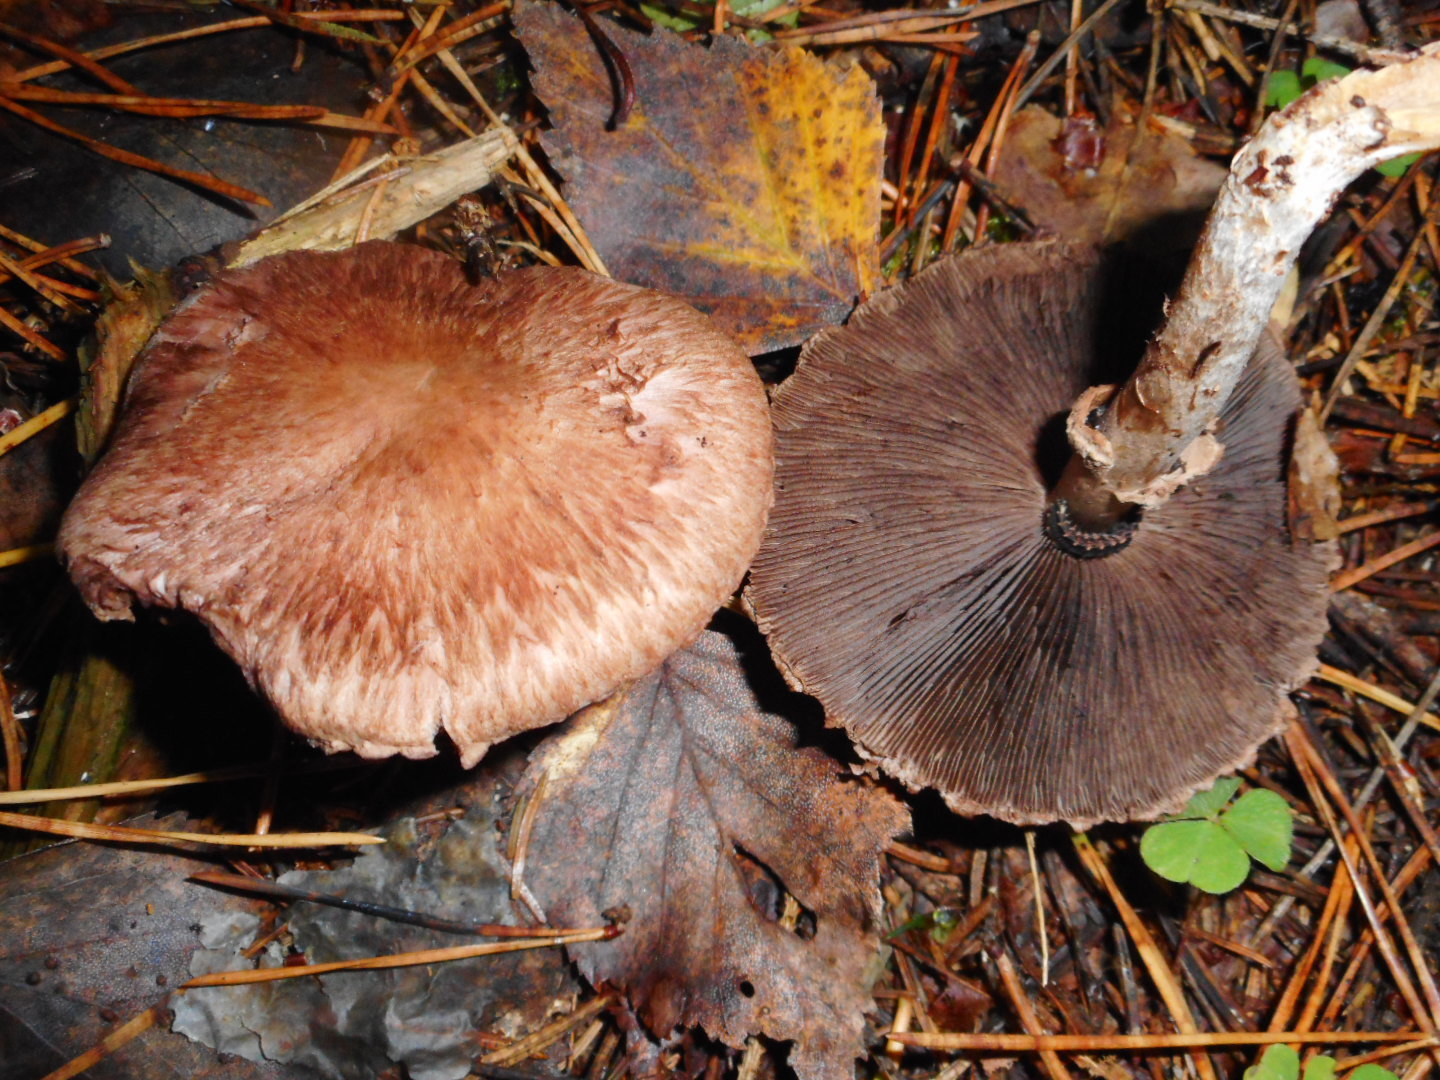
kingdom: Fungi
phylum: Basidiomycota
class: Agaricomycetes
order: Agaricales
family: Agaricaceae
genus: Agaricus
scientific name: Agaricus sylvaticus
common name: Blushing wood mushroom
